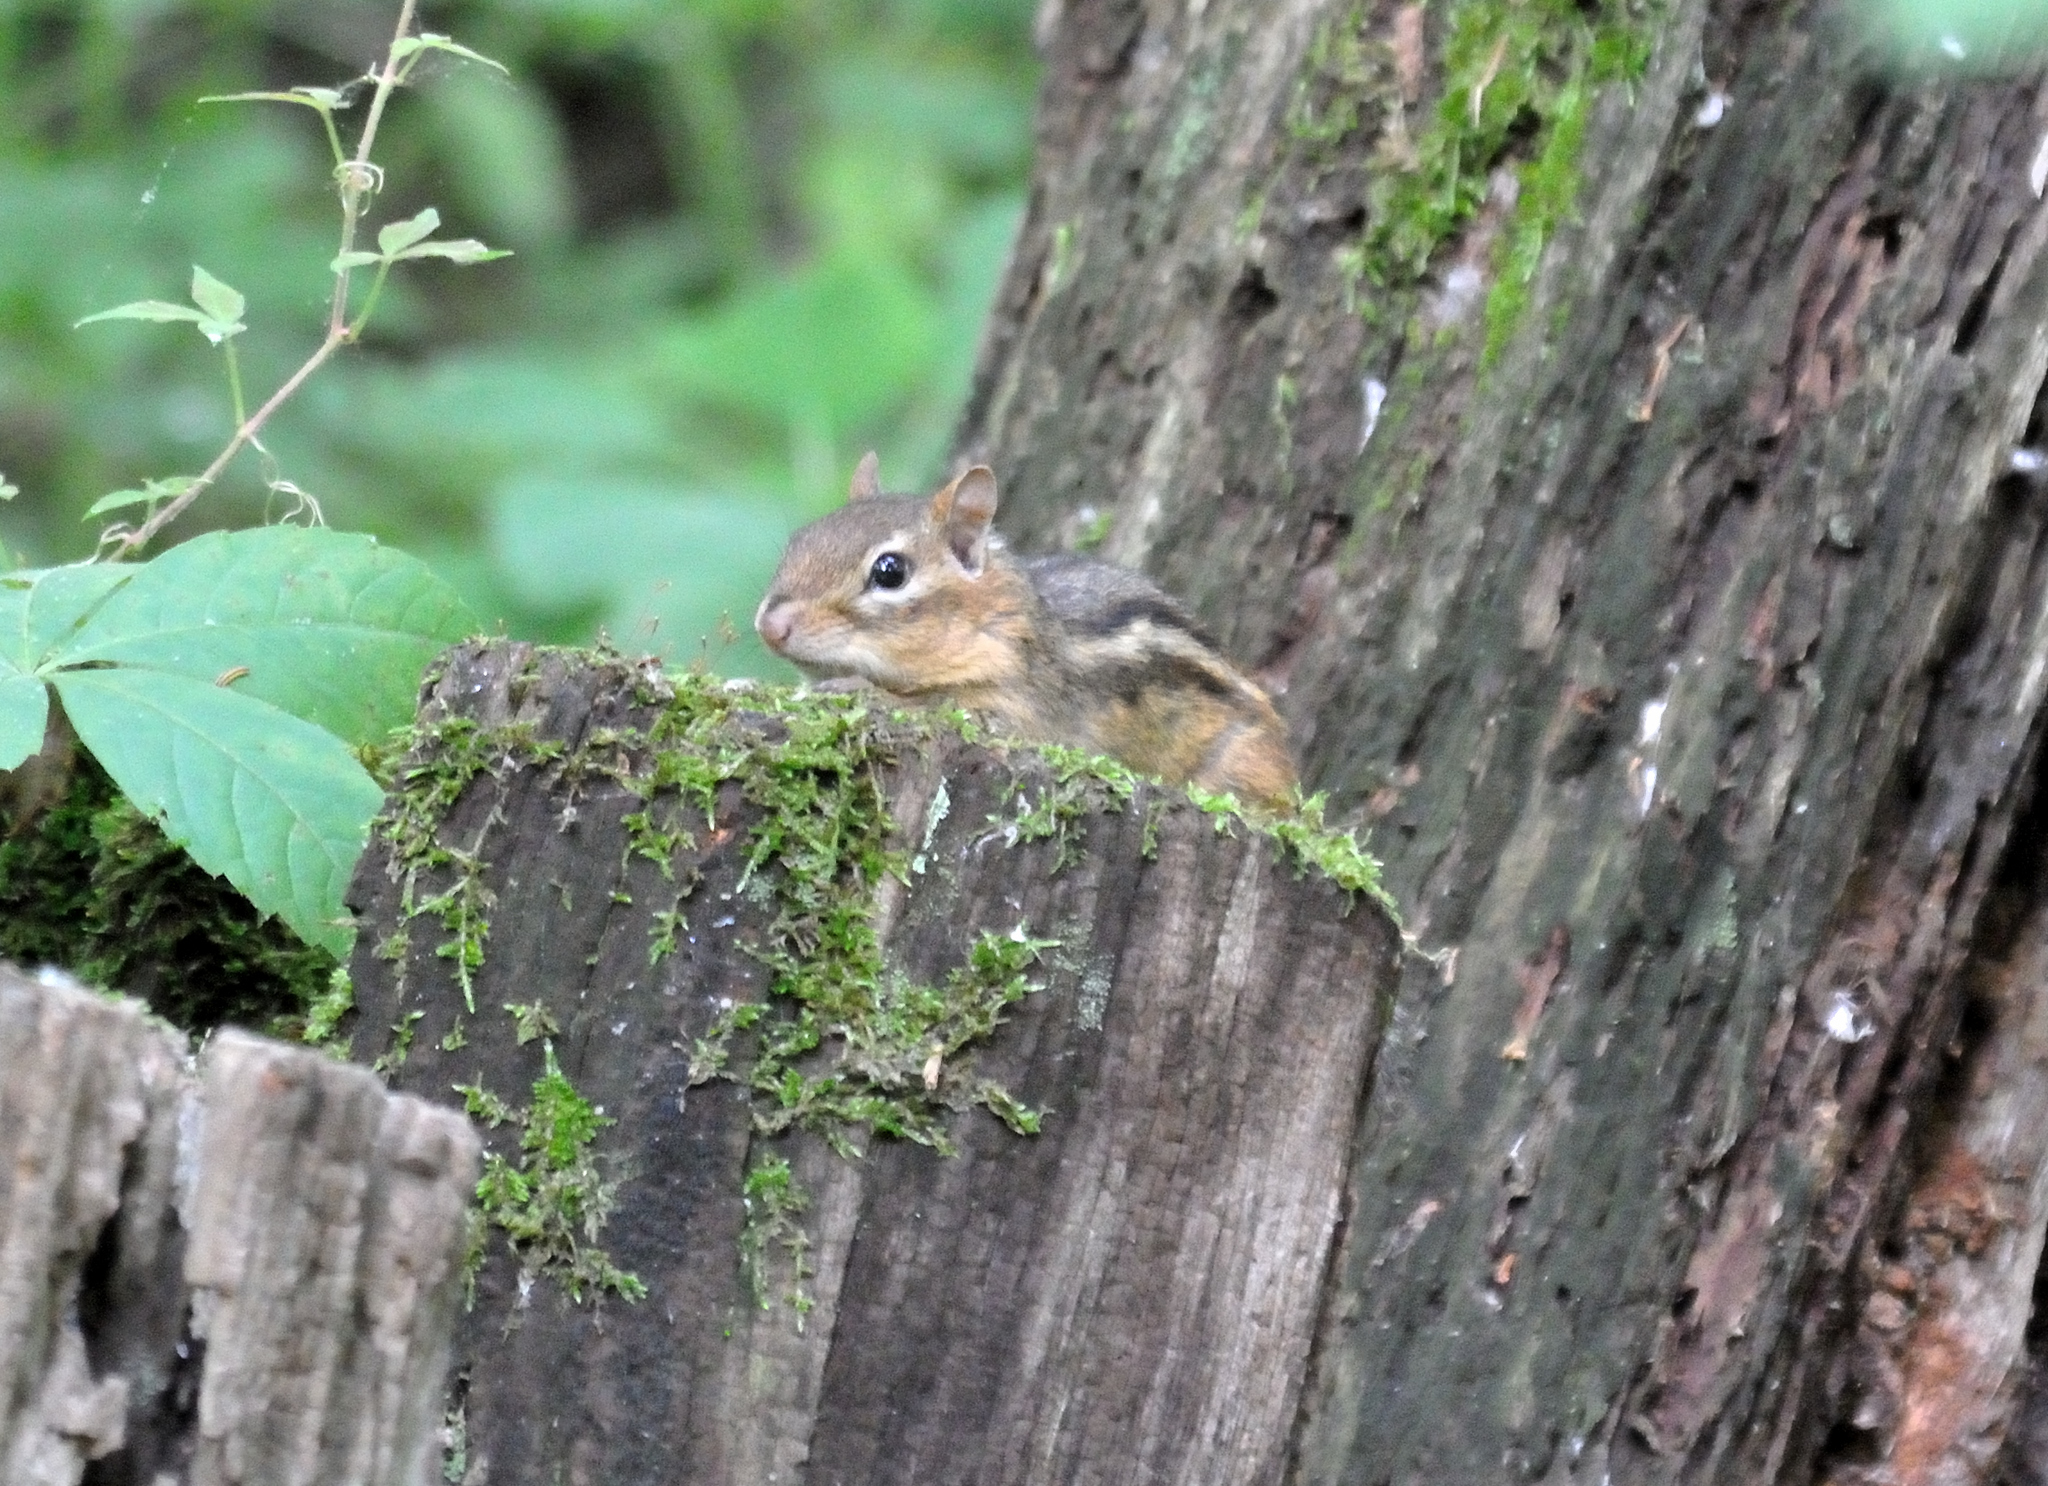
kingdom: Animalia
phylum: Chordata
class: Mammalia
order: Rodentia
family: Sciuridae
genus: Tamias
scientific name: Tamias striatus
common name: Eastern chipmunk
